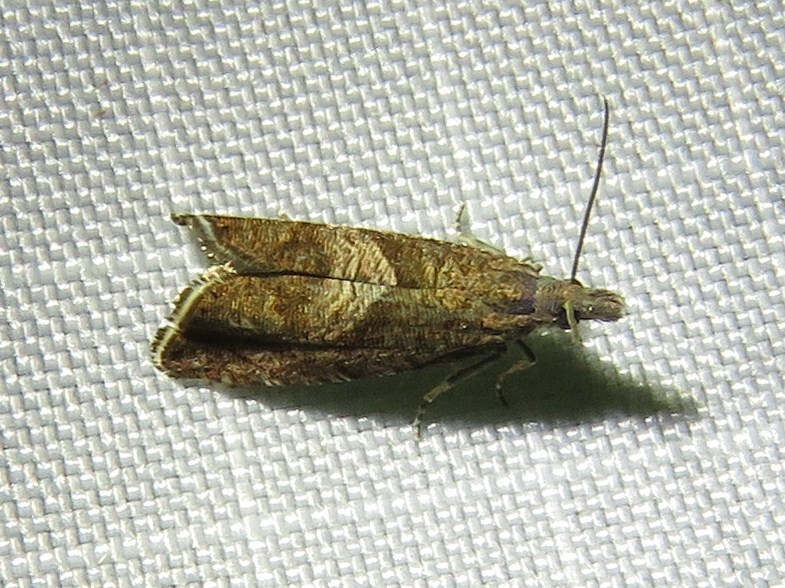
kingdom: Animalia
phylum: Arthropoda
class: Insecta
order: Lepidoptera
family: Tortricidae
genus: Dichrorampha
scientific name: Dichrorampha acuminatana
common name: Sharp-winged drill
